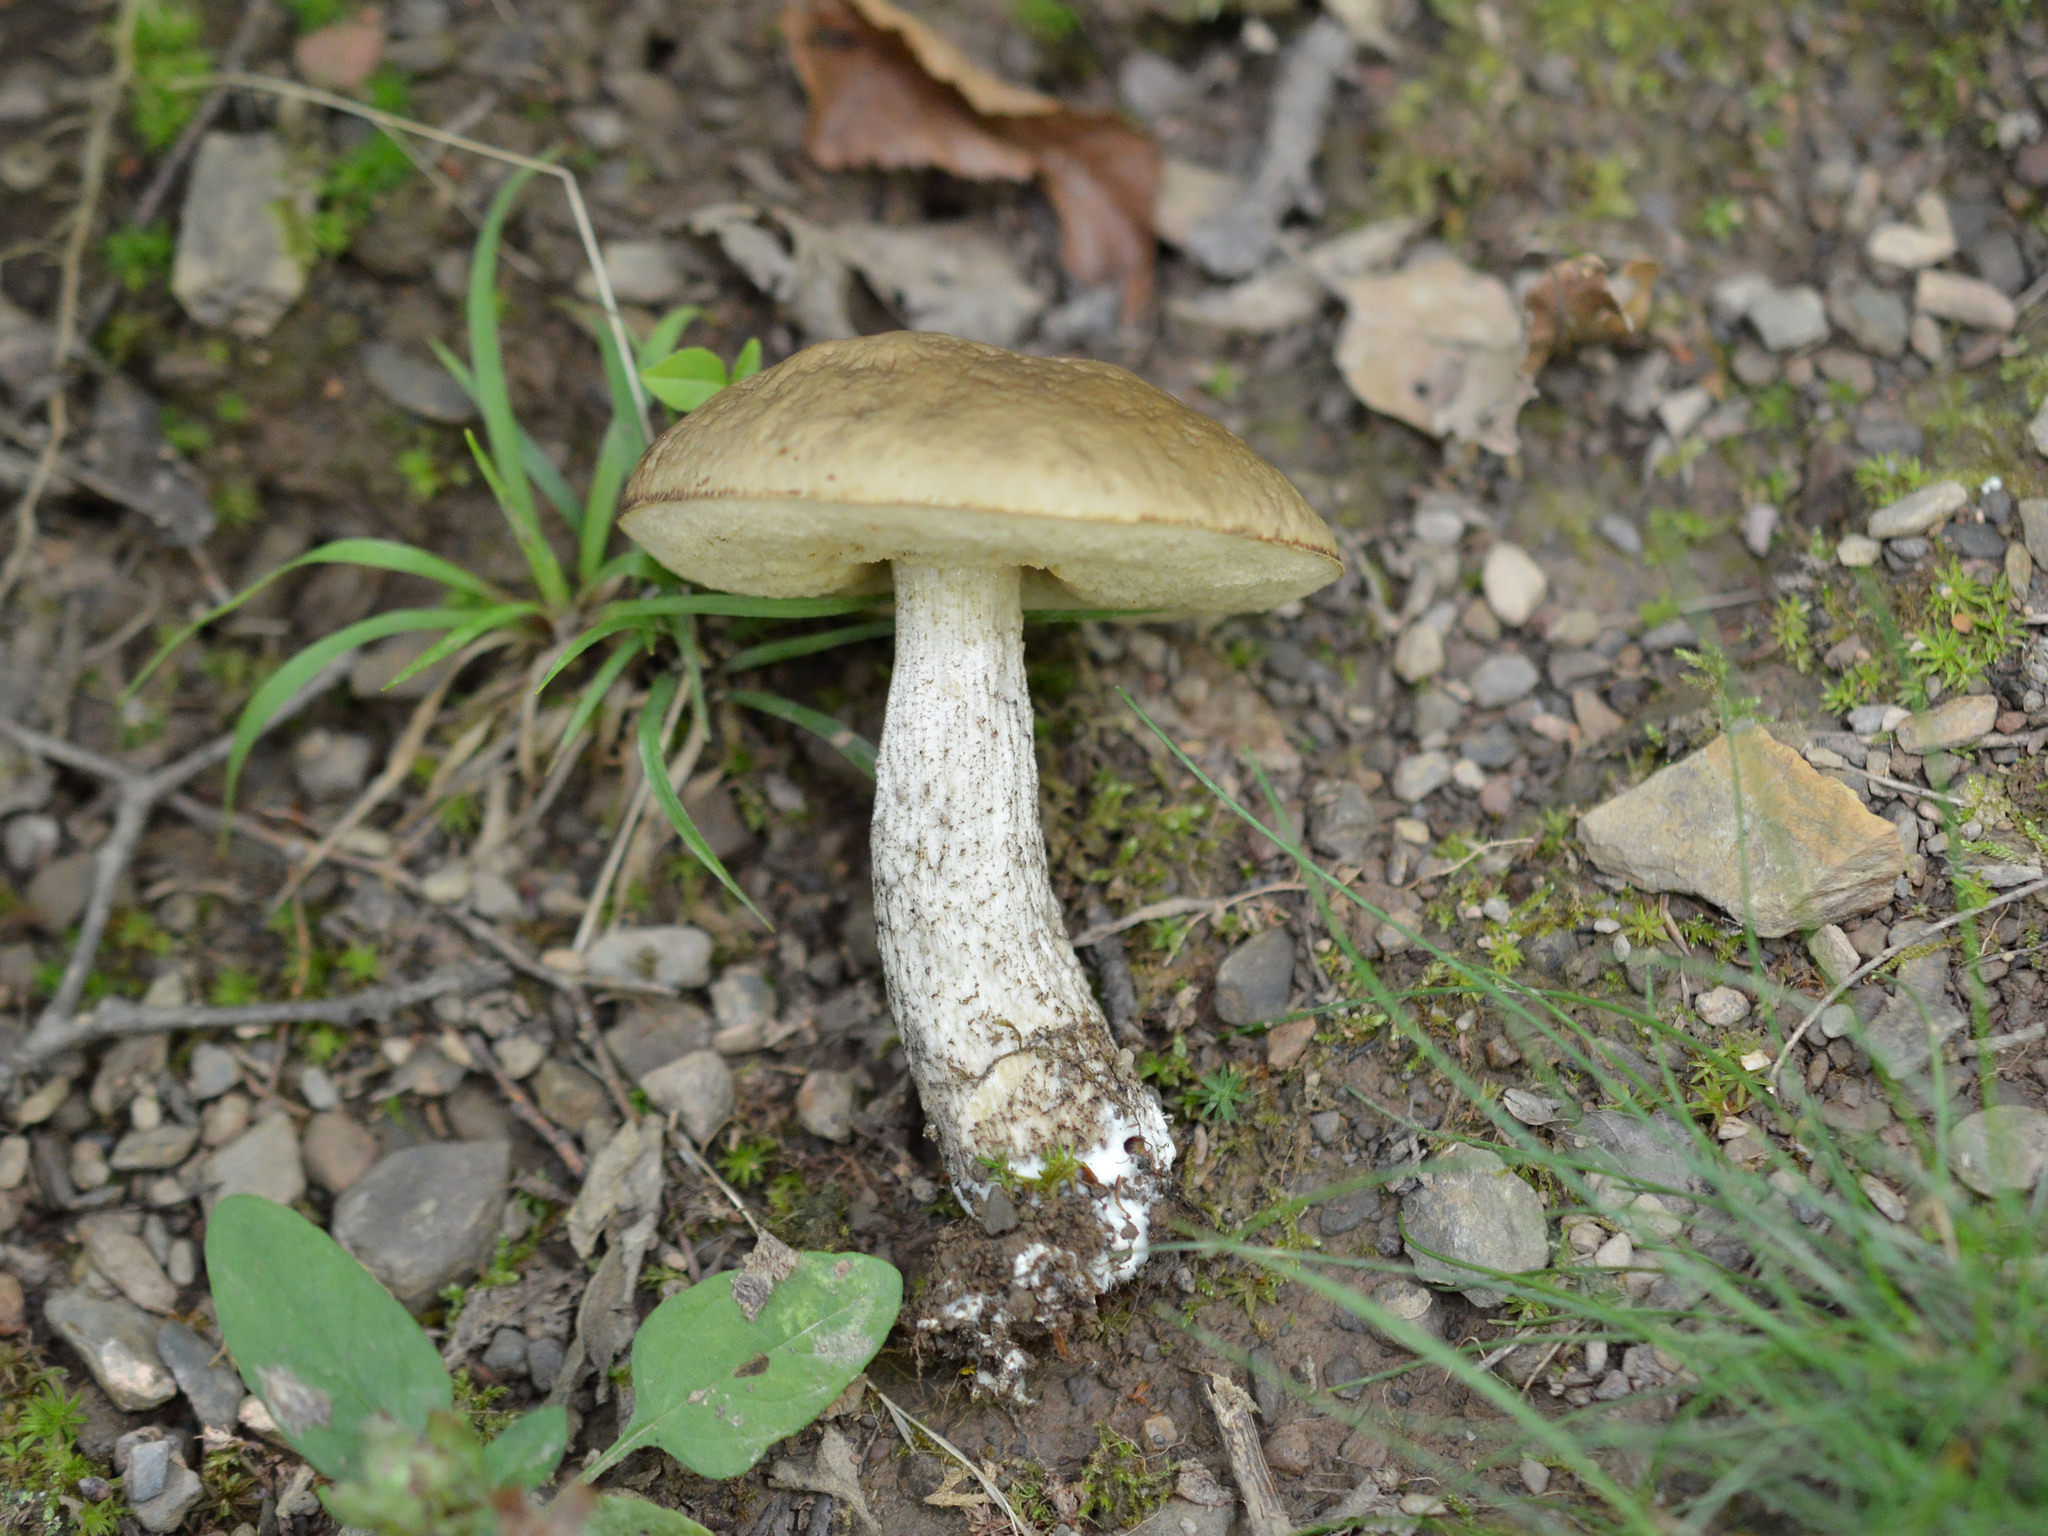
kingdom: Fungi
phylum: Basidiomycota
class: Agaricomycetes
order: Boletales
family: Boletaceae
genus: Leccinellum
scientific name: Leccinellum pseudoscabrum
